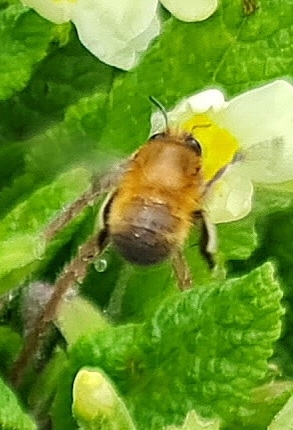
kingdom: Animalia
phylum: Arthropoda
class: Insecta
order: Hymenoptera
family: Apidae
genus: Anthophora
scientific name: Anthophora plumipes
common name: Hairy-footed flower bee
